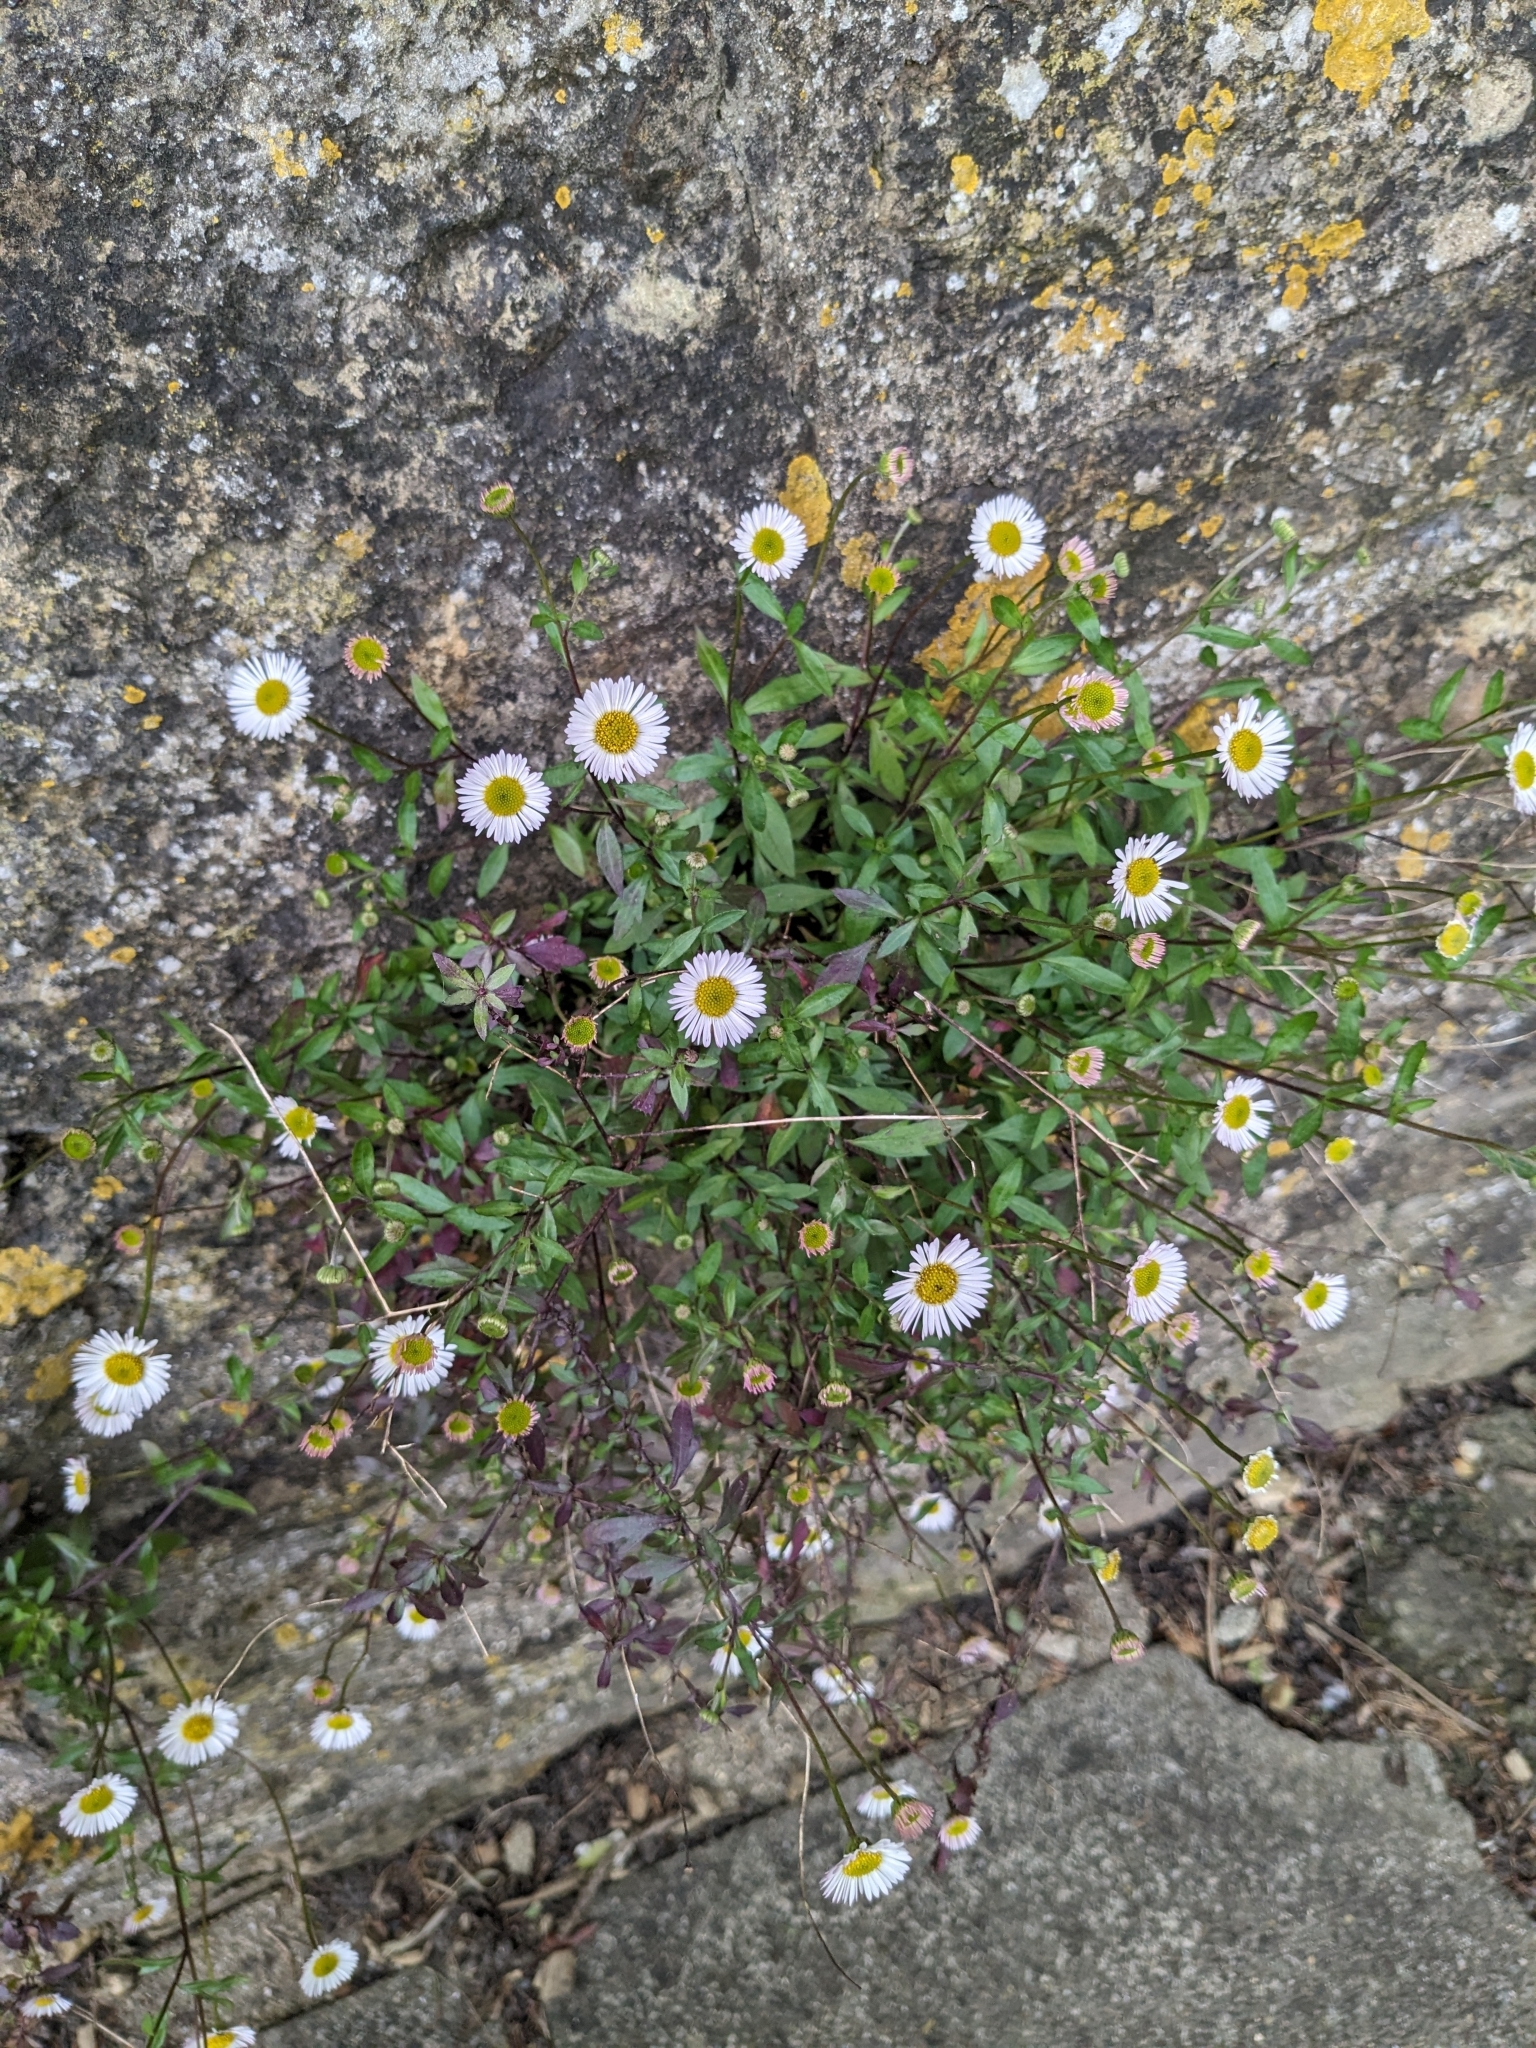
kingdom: Plantae
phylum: Tracheophyta
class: Magnoliopsida
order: Asterales
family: Asteraceae
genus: Erigeron
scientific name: Erigeron karvinskianus
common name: Mexican fleabane
